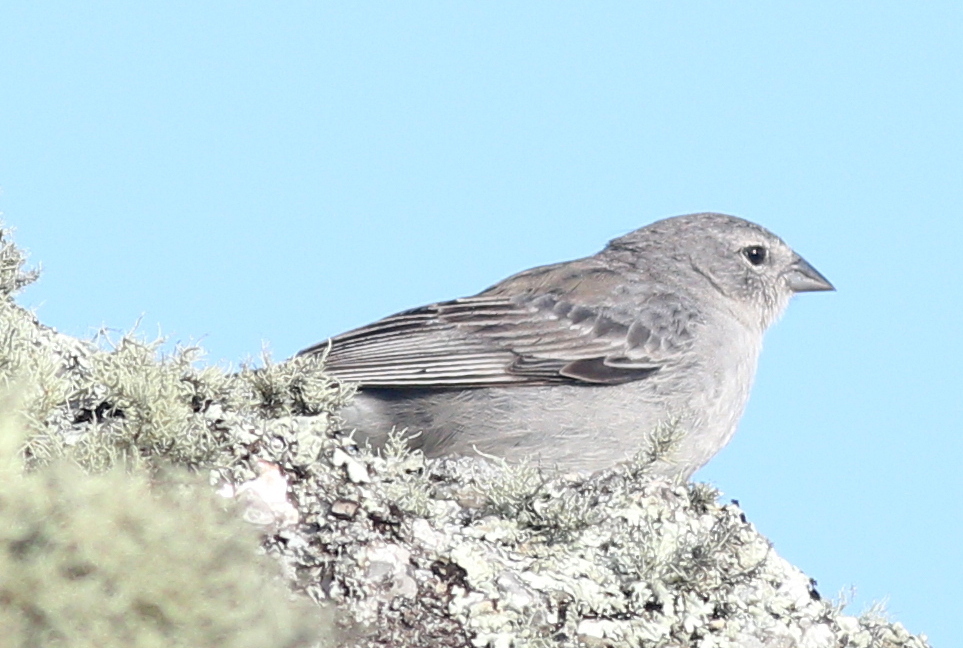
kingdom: Animalia
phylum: Chordata
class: Aves
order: Passeriformes
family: Thraupidae
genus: Geospizopsis
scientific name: Geospizopsis plebejus
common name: Ash-breasted sierra-finch
